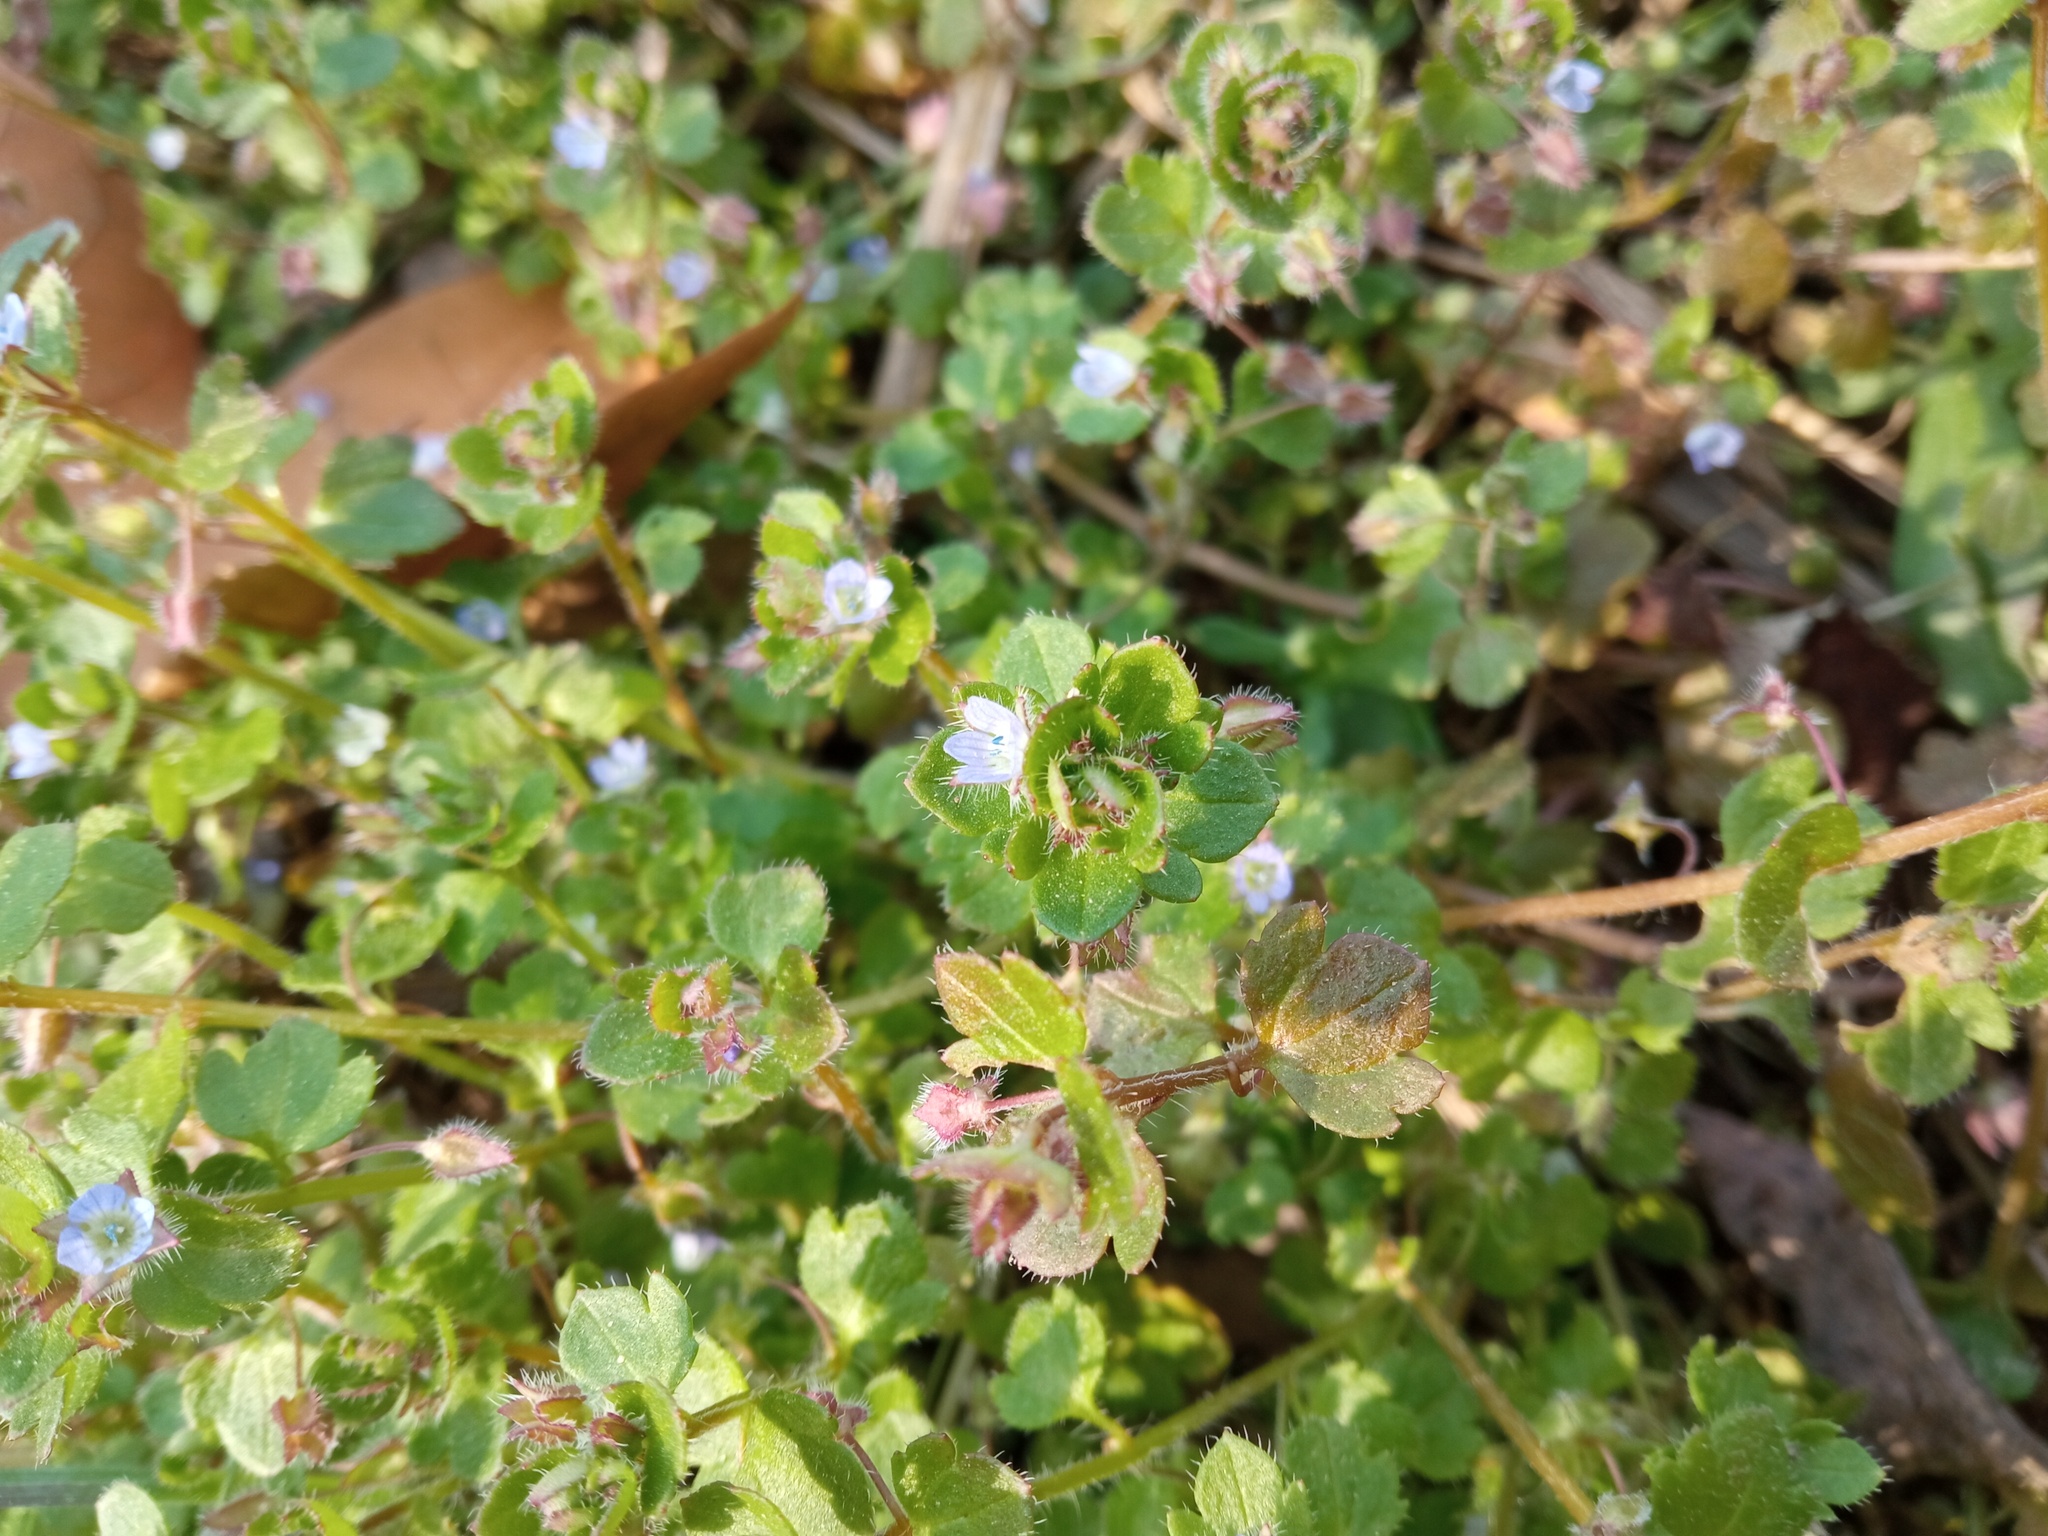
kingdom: Plantae
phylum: Tracheophyta
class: Magnoliopsida
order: Lamiales
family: Plantaginaceae
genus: Veronica
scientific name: Veronica hederifolia
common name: Ivy-leaved speedwell
